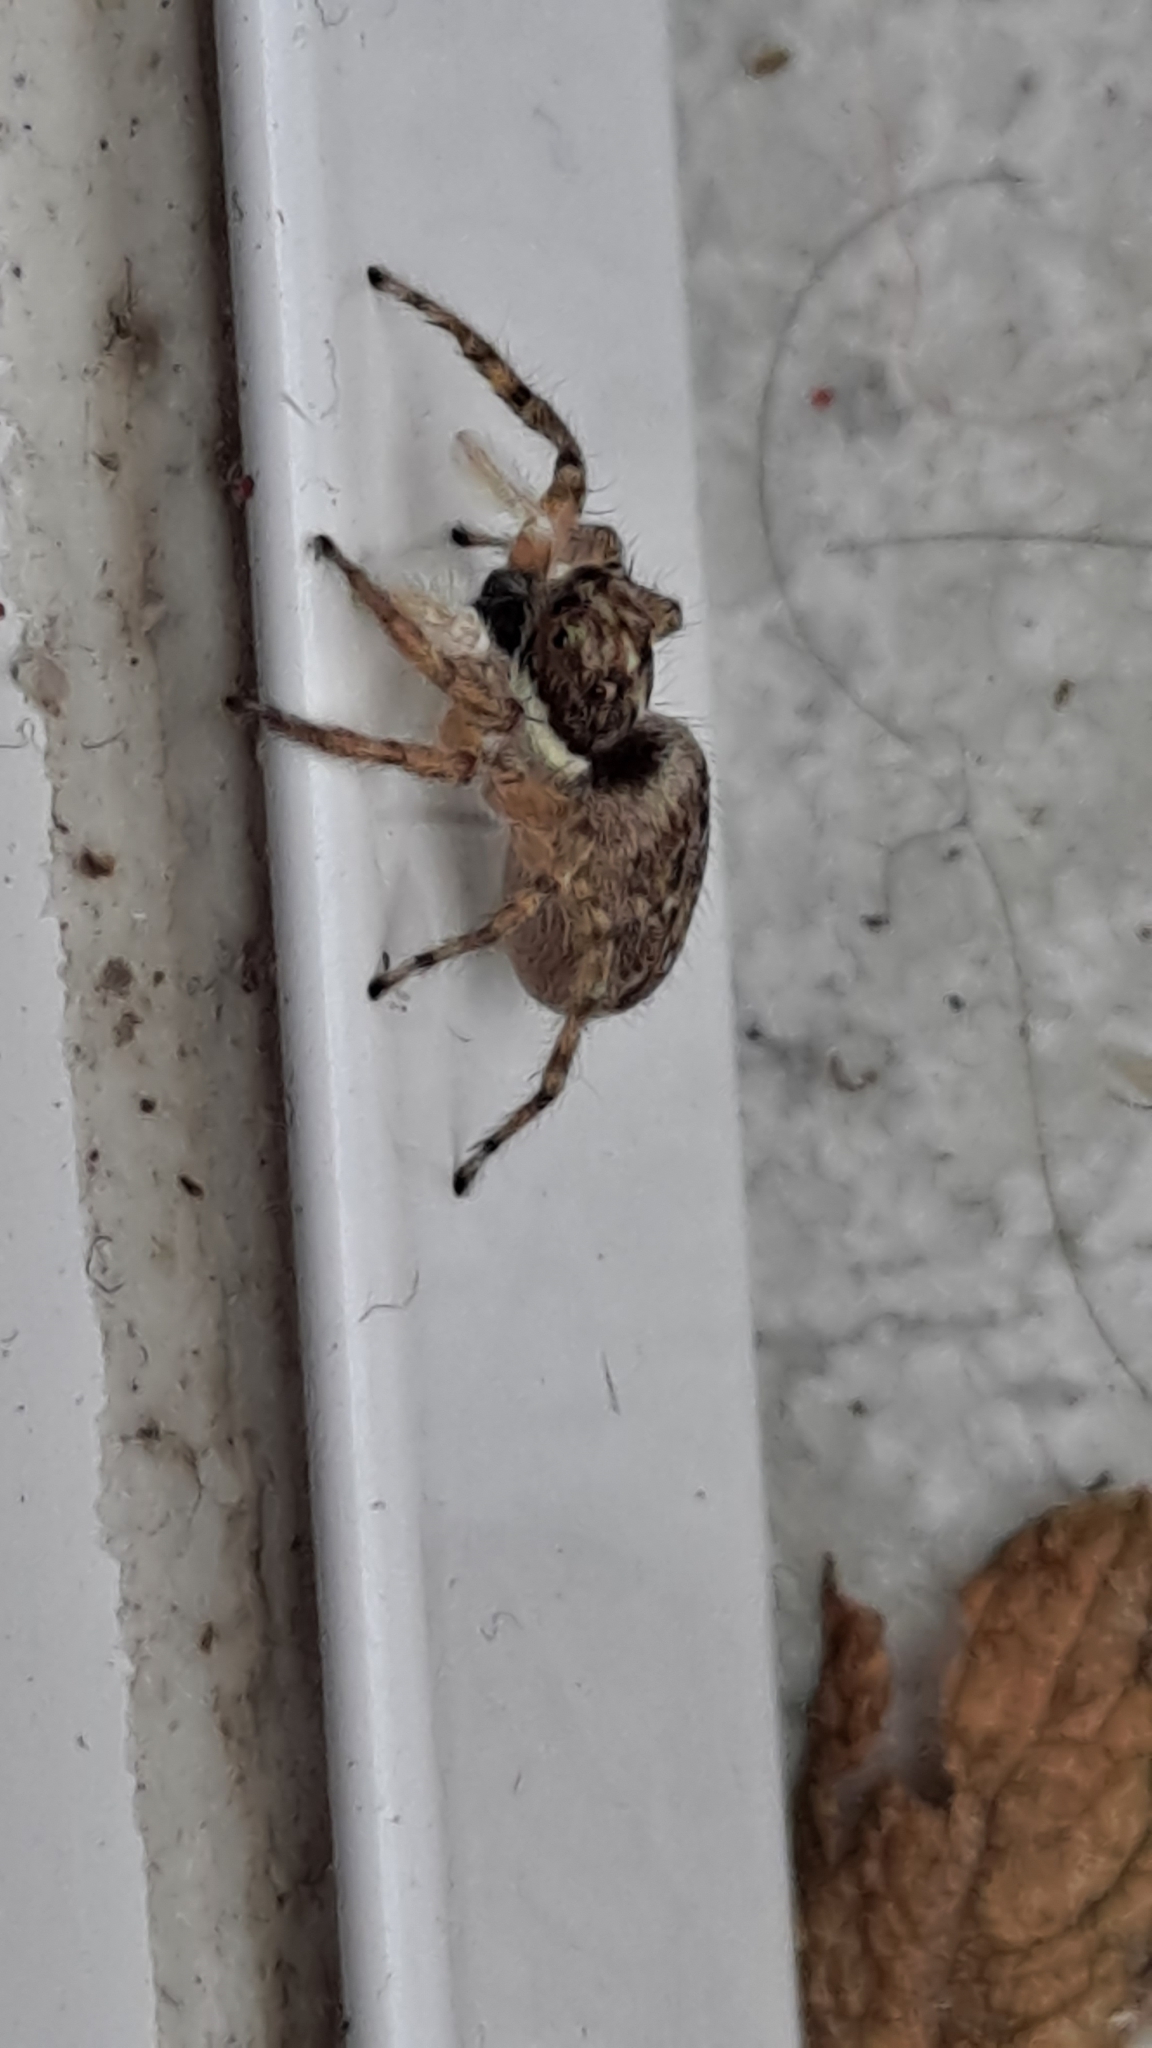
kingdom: Animalia
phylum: Arthropoda
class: Arachnida
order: Araneae
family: Salticidae
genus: Menemerus
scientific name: Menemerus semilimbatus
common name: Jumping spider
